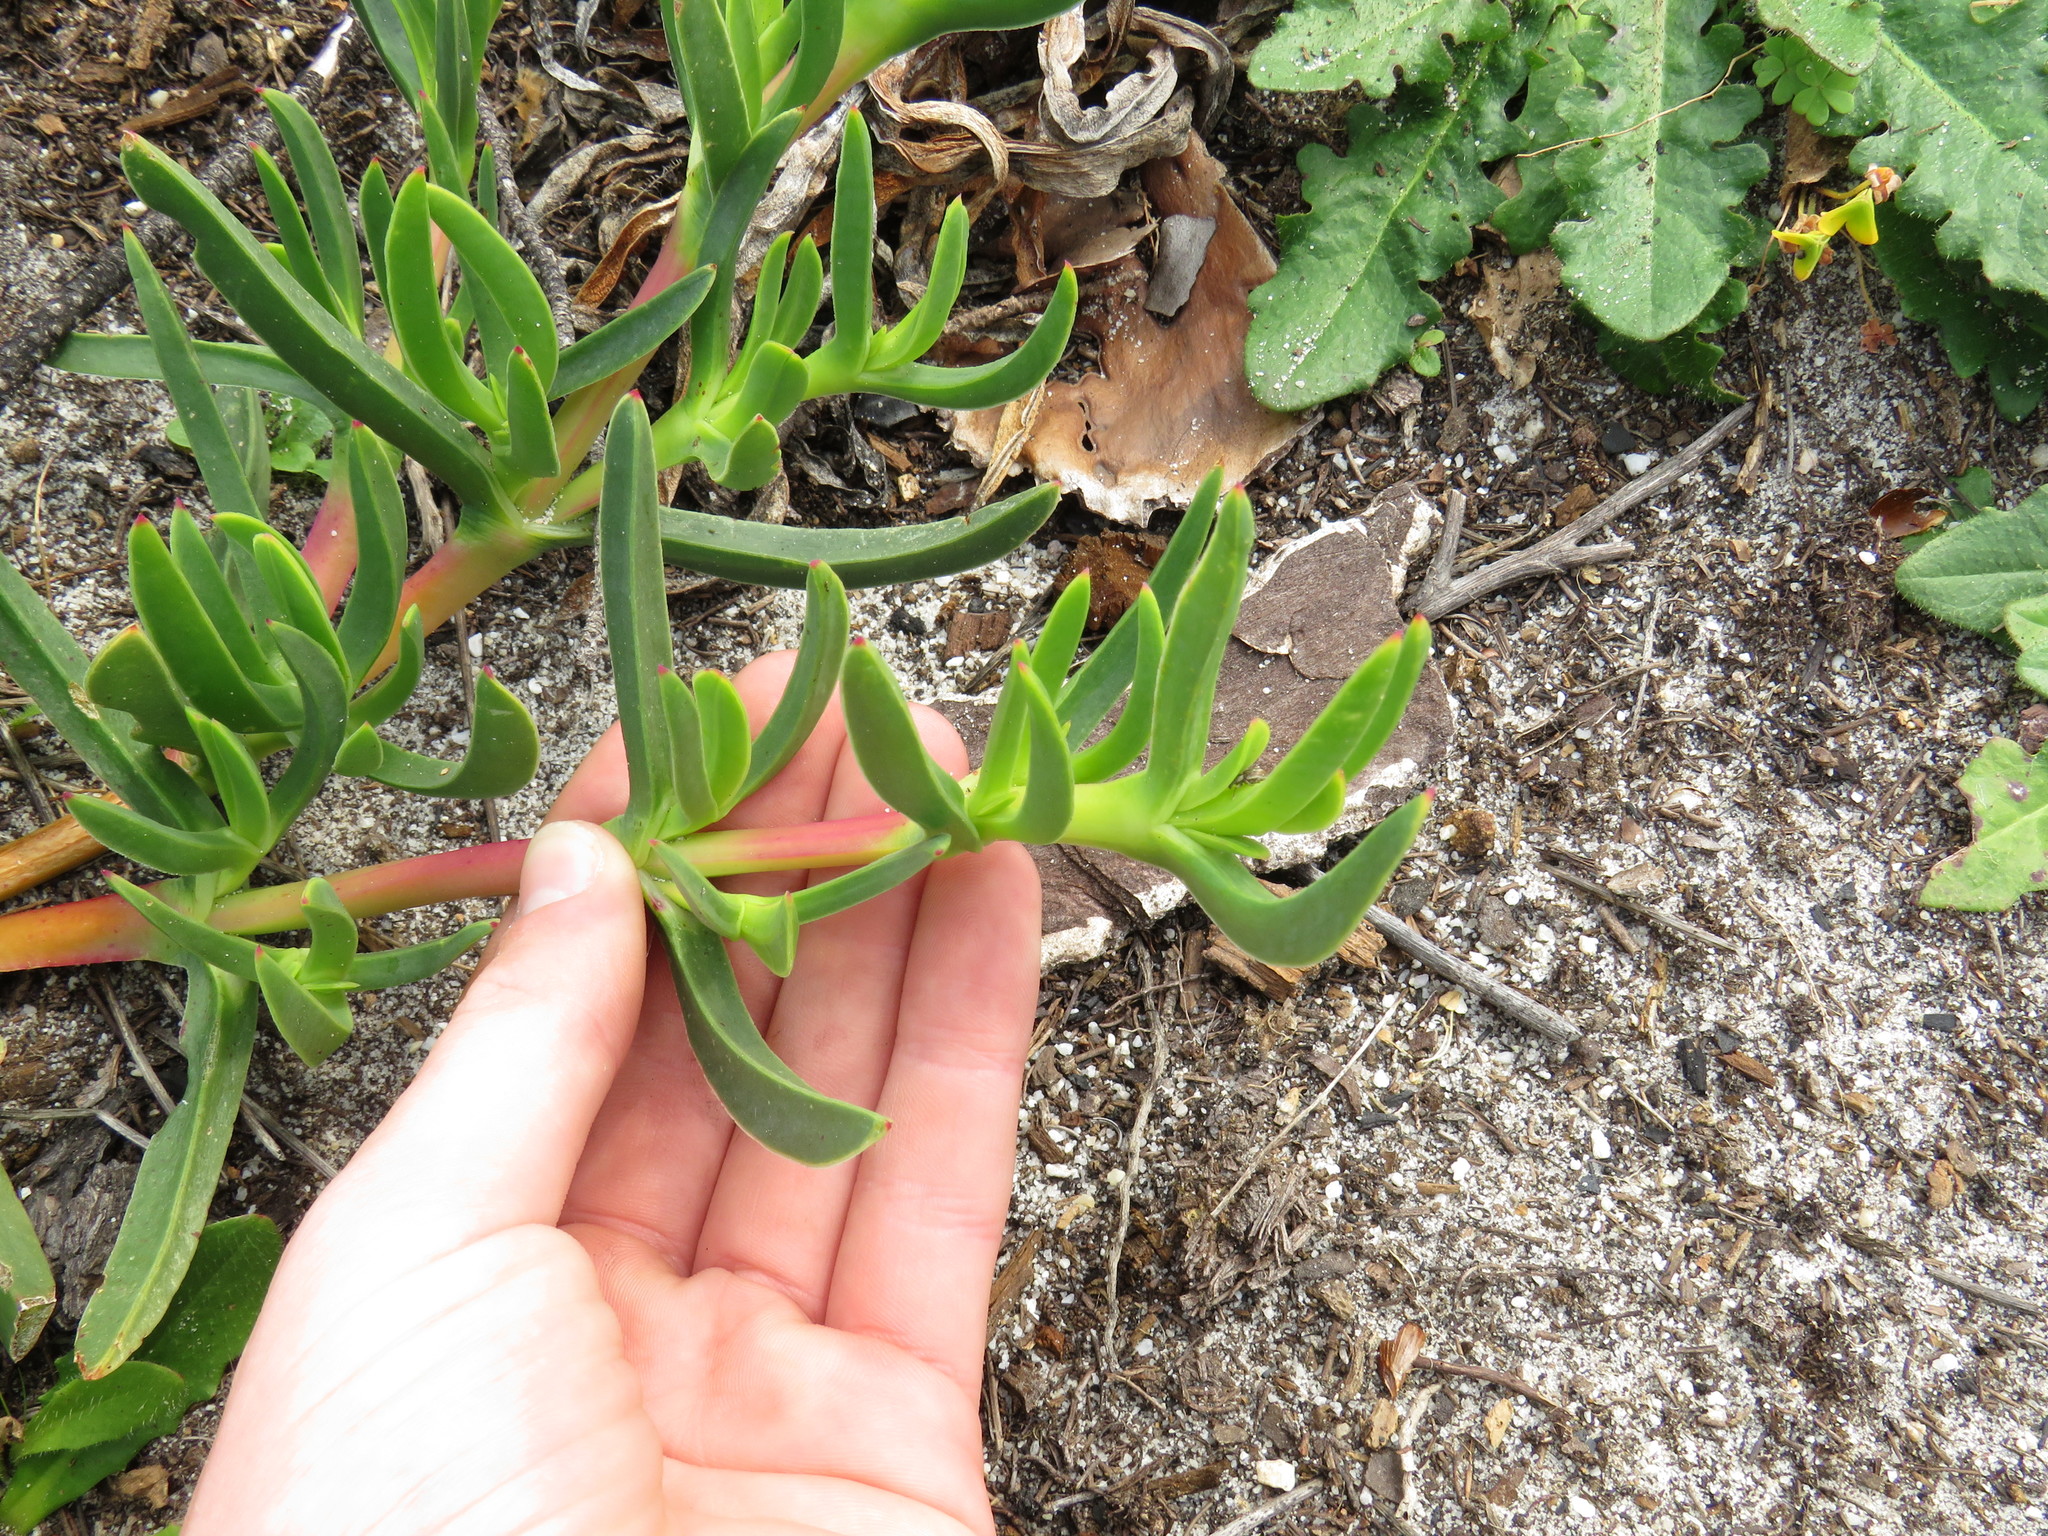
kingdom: Plantae
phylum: Tracheophyta
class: Magnoliopsida
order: Caryophyllales
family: Aizoaceae
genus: Carpobrotus
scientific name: Carpobrotus edulis
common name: Hottentot-fig
